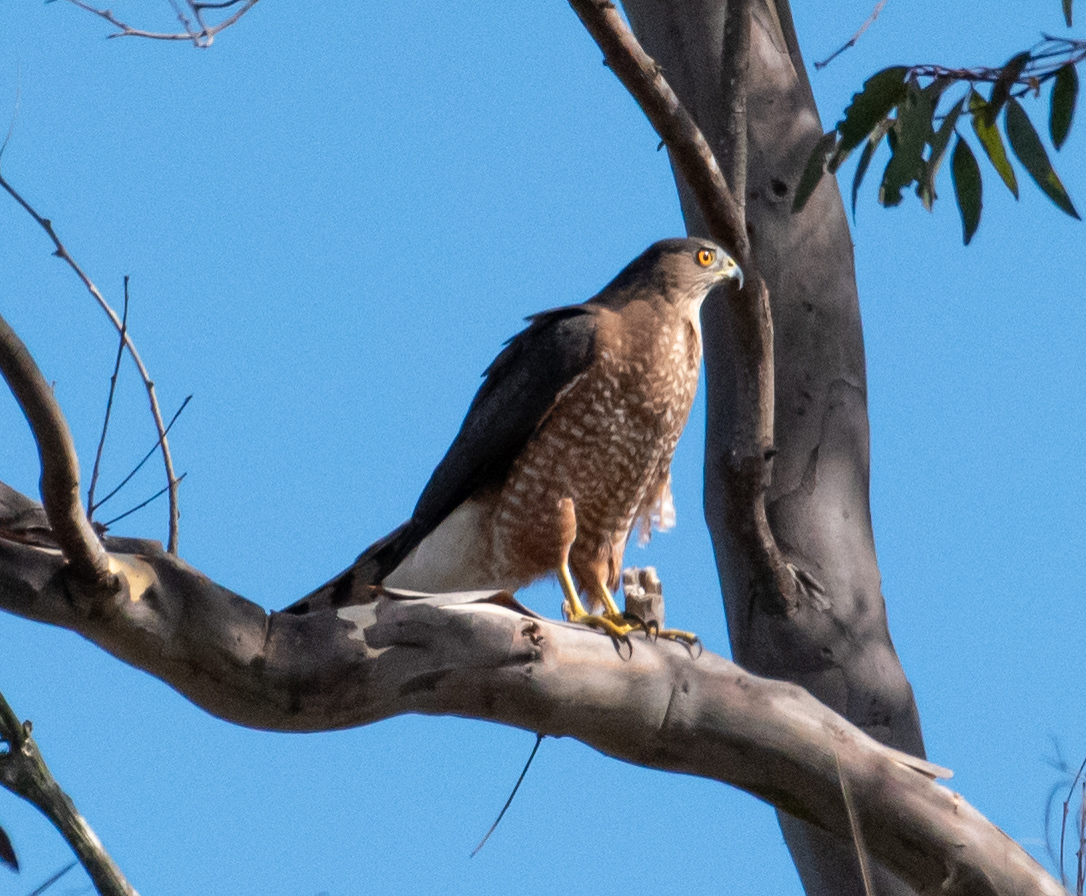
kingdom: Animalia
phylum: Chordata
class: Aves
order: Accipitriformes
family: Accipitridae
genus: Accipiter
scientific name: Accipiter cooperii
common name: Cooper's hawk
